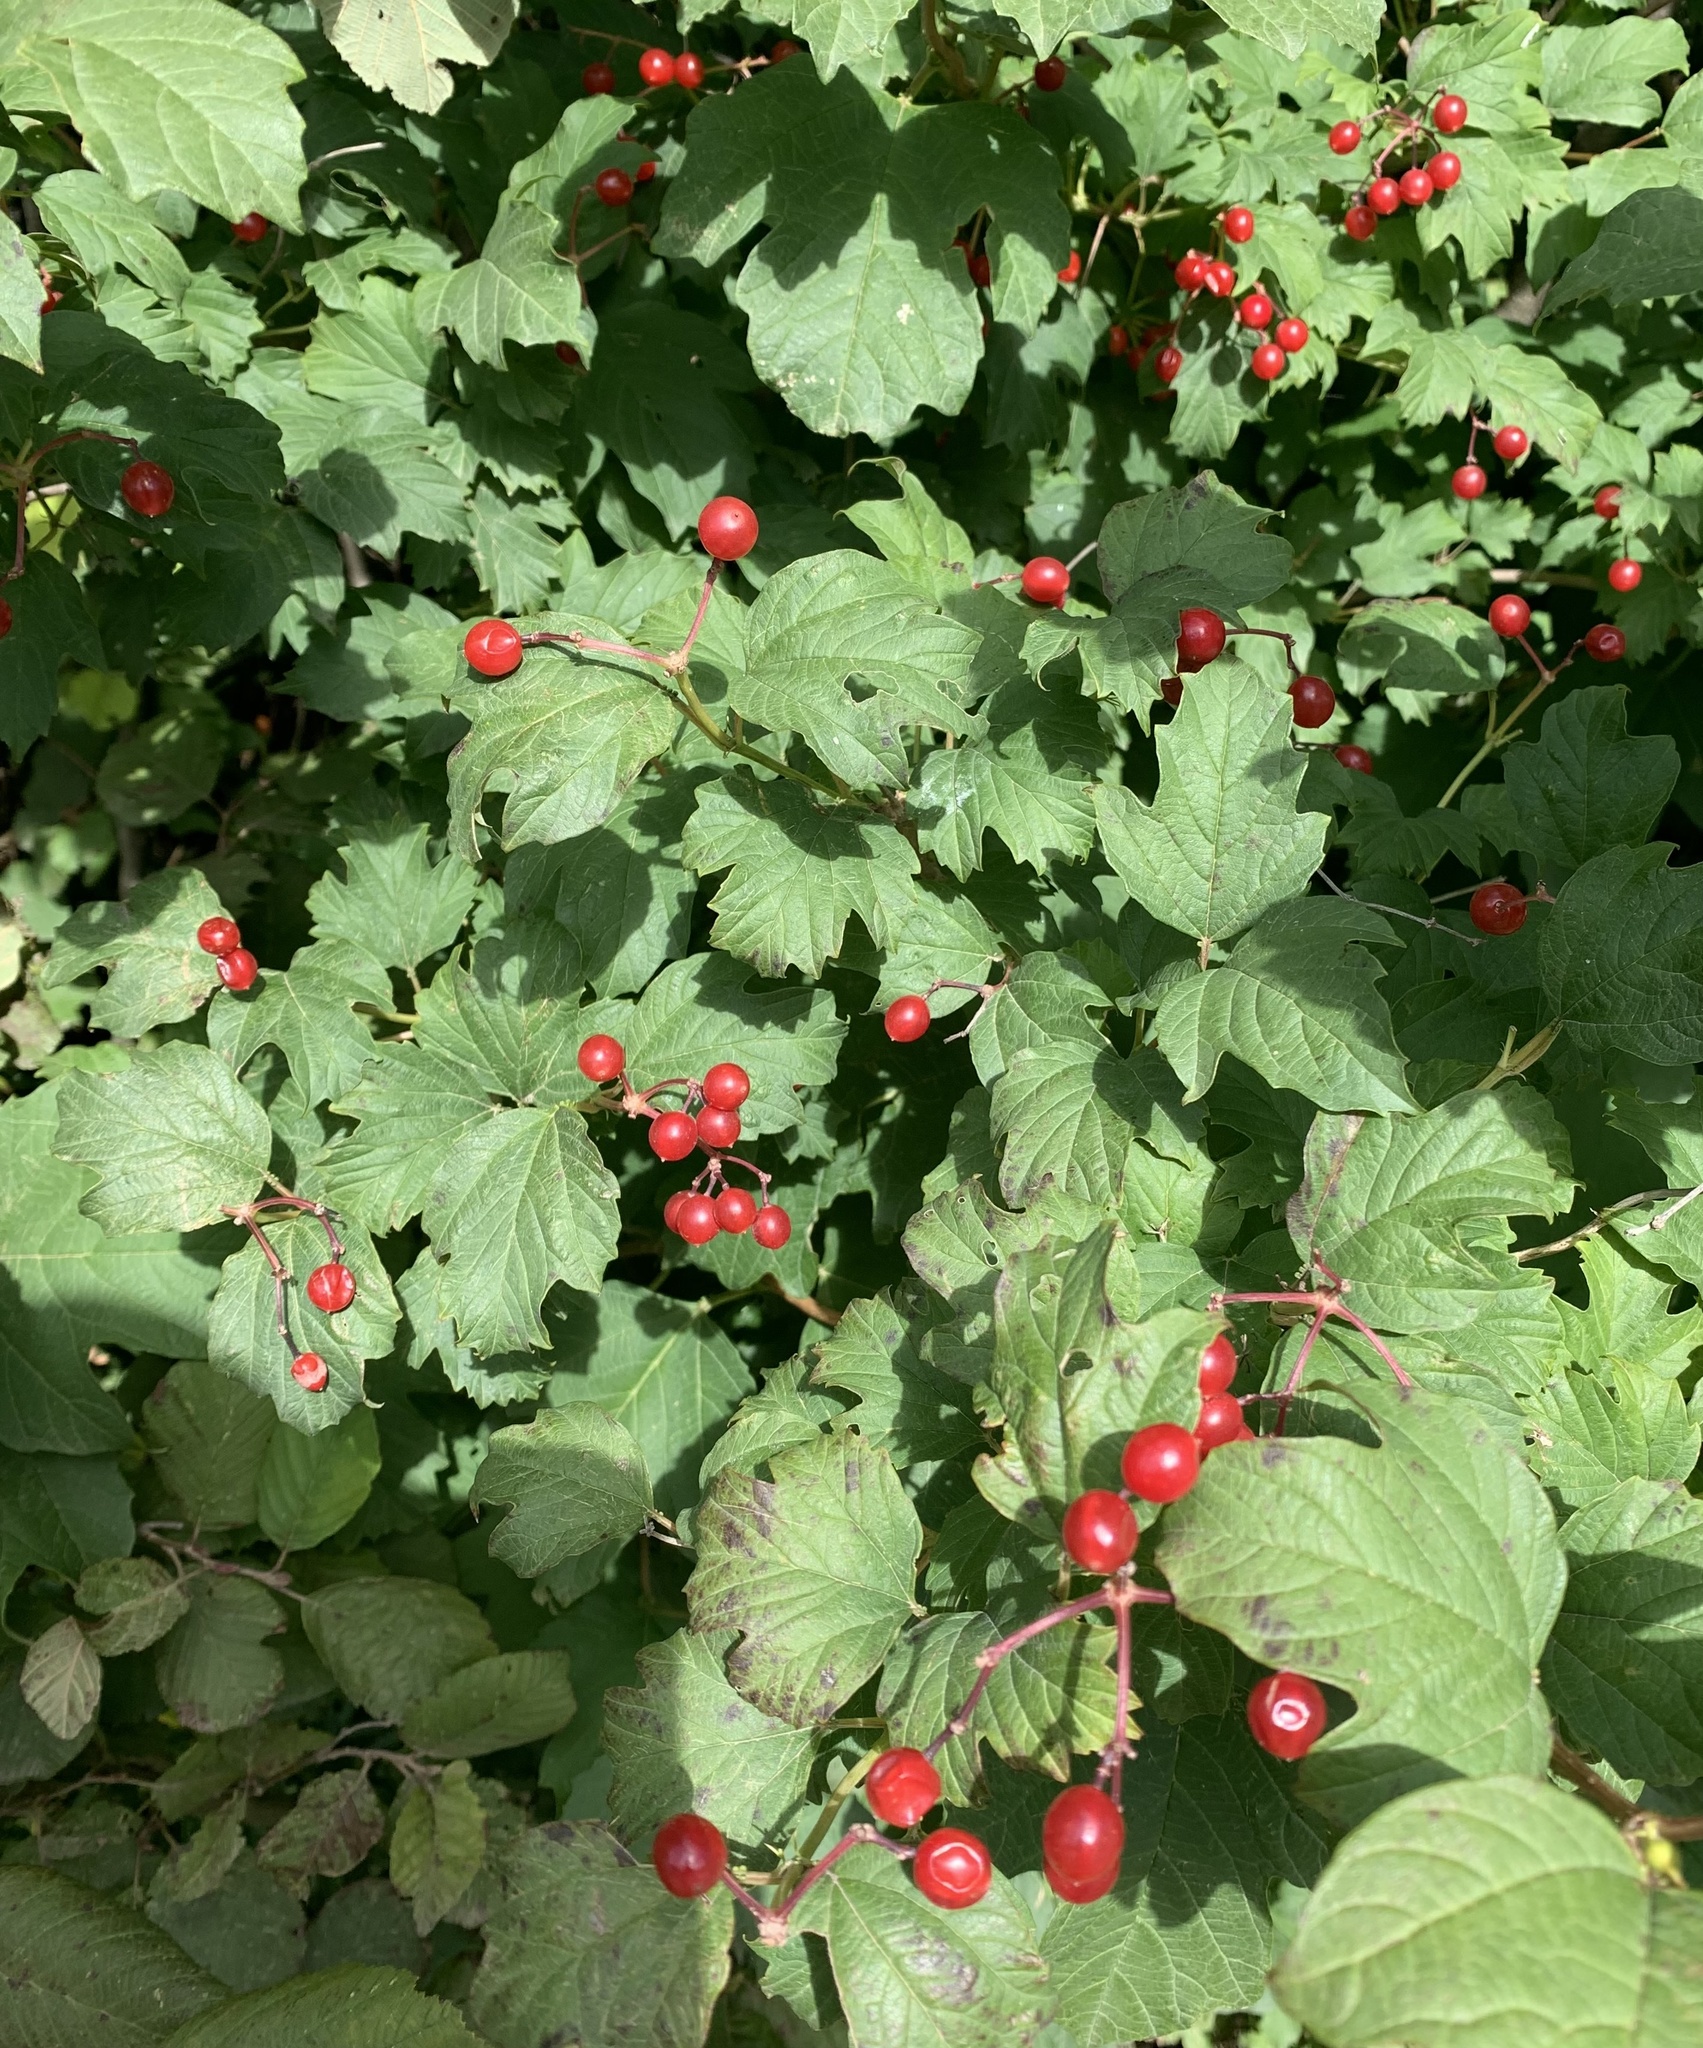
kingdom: Plantae
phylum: Tracheophyta
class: Magnoliopsida
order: Dipsacales
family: Viburnaceae
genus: Viburnum
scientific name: Viburnum opulus
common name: Guelder-rose
